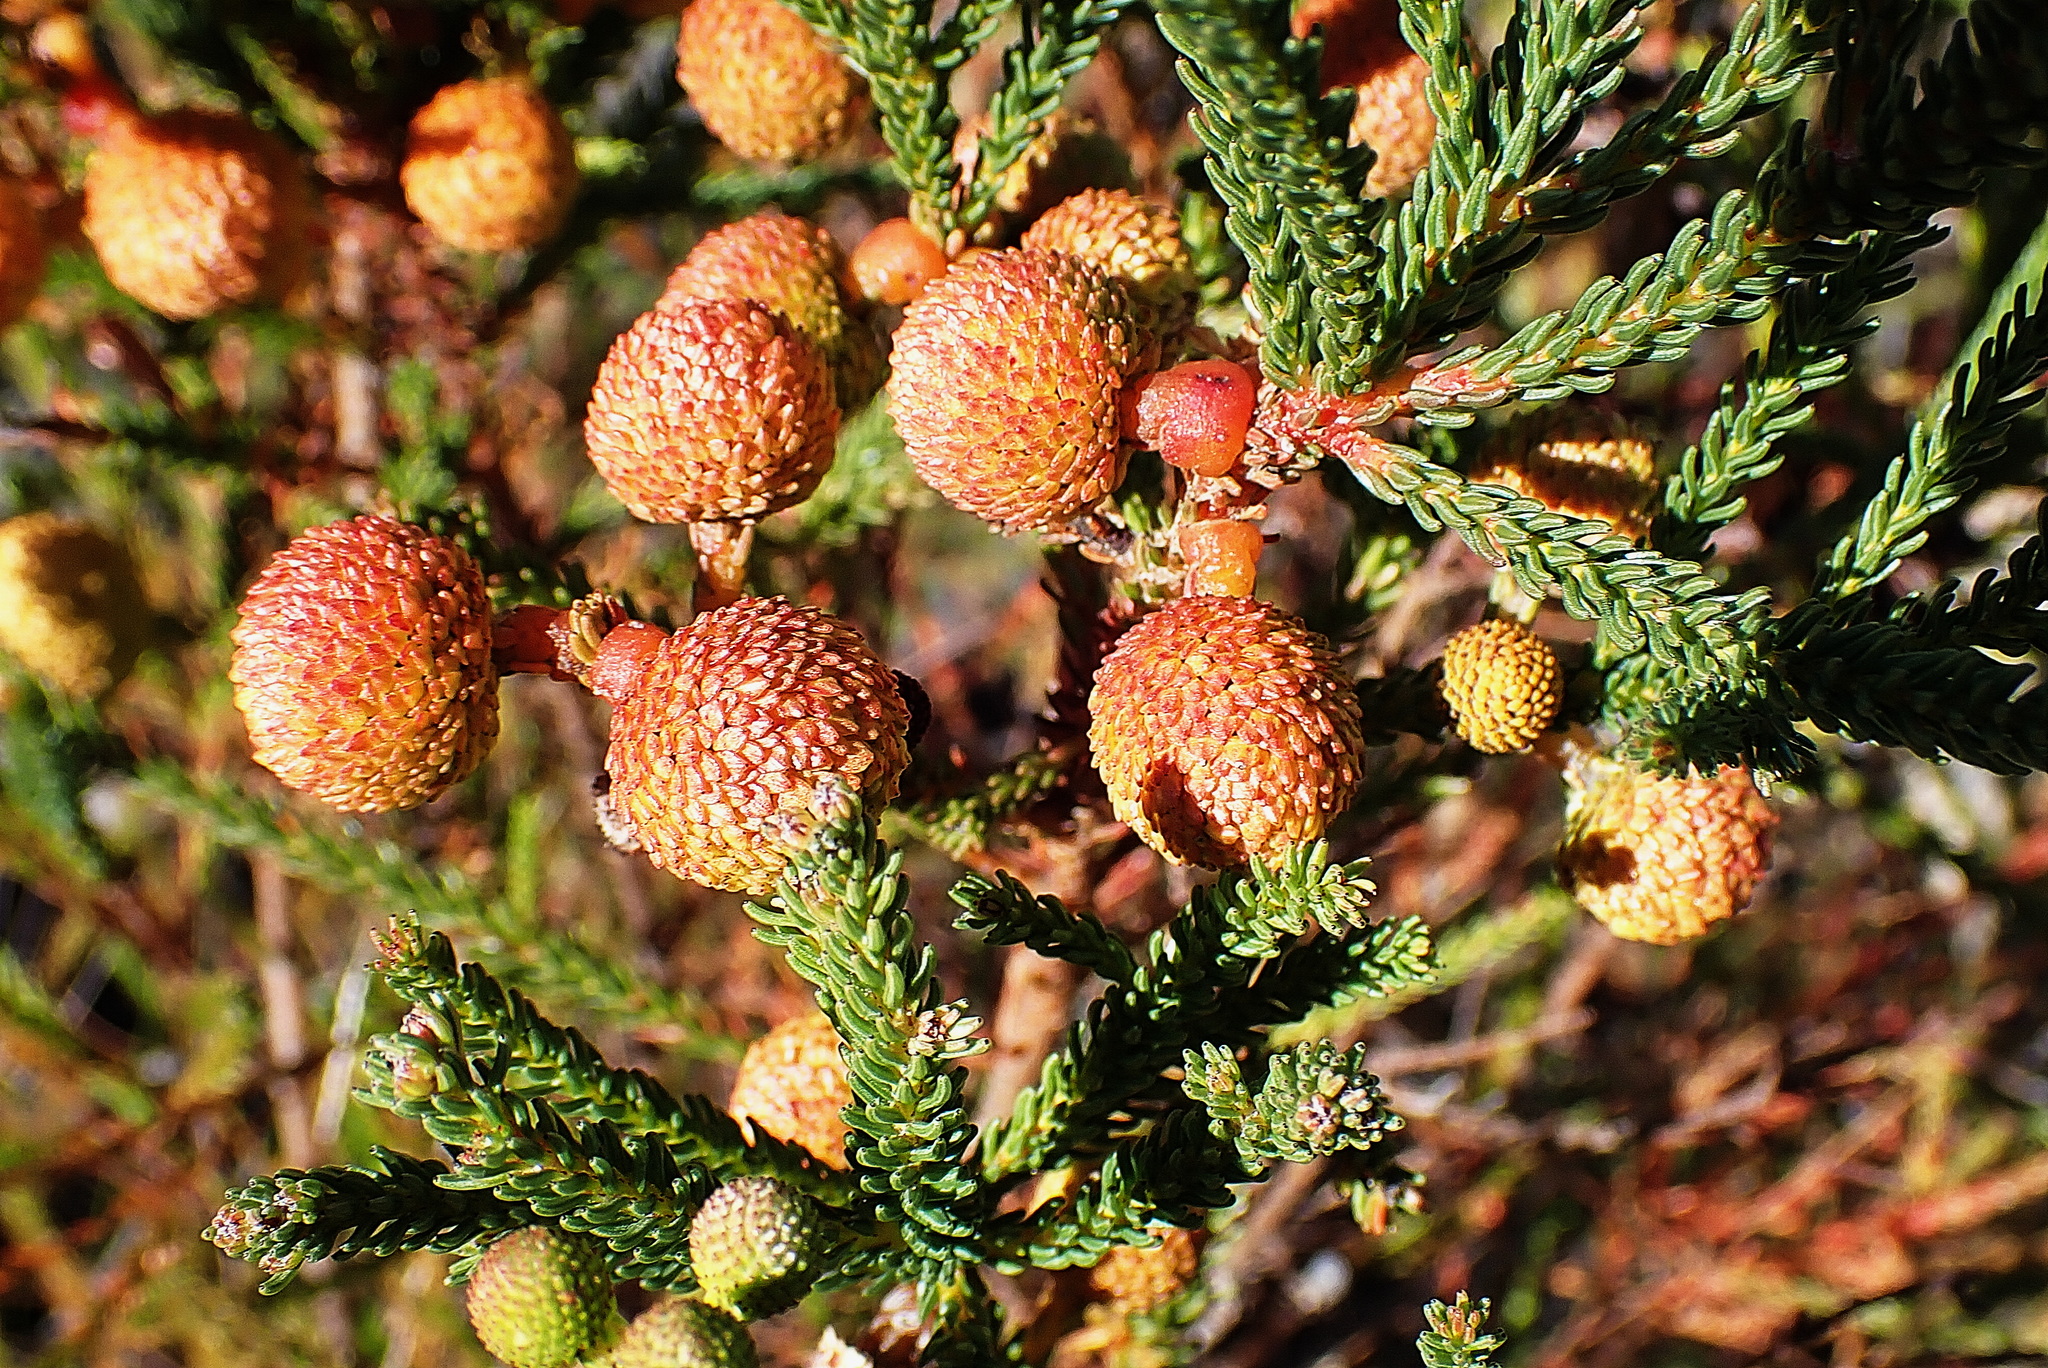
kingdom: Plantae
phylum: Tracheophyta
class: Magnoliopsida
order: Bruniales
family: Bruniaceae
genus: Berzelia
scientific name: Berzelia intermedia
